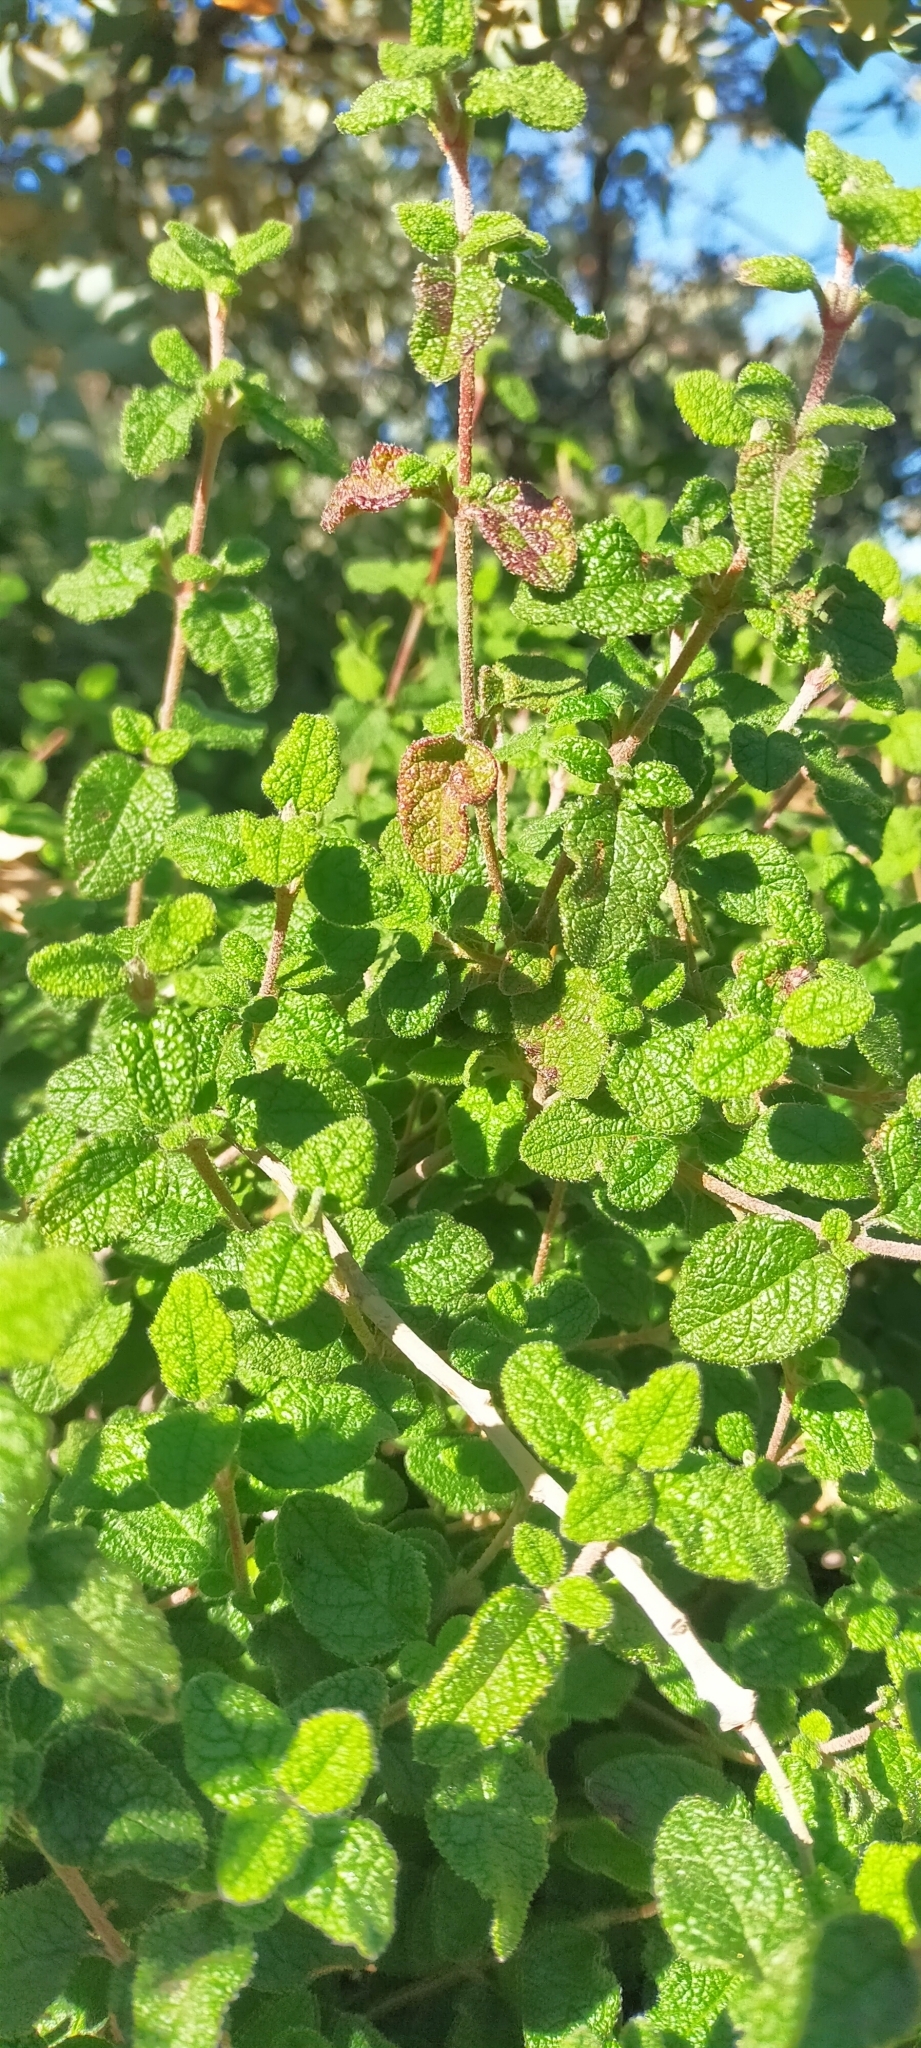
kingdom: Plantae
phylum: Tracheophyta
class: Magnoliopsida
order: Malvales
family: Cistaceae
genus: Cistus
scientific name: Cistus salviifolius
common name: Salvia cistus
